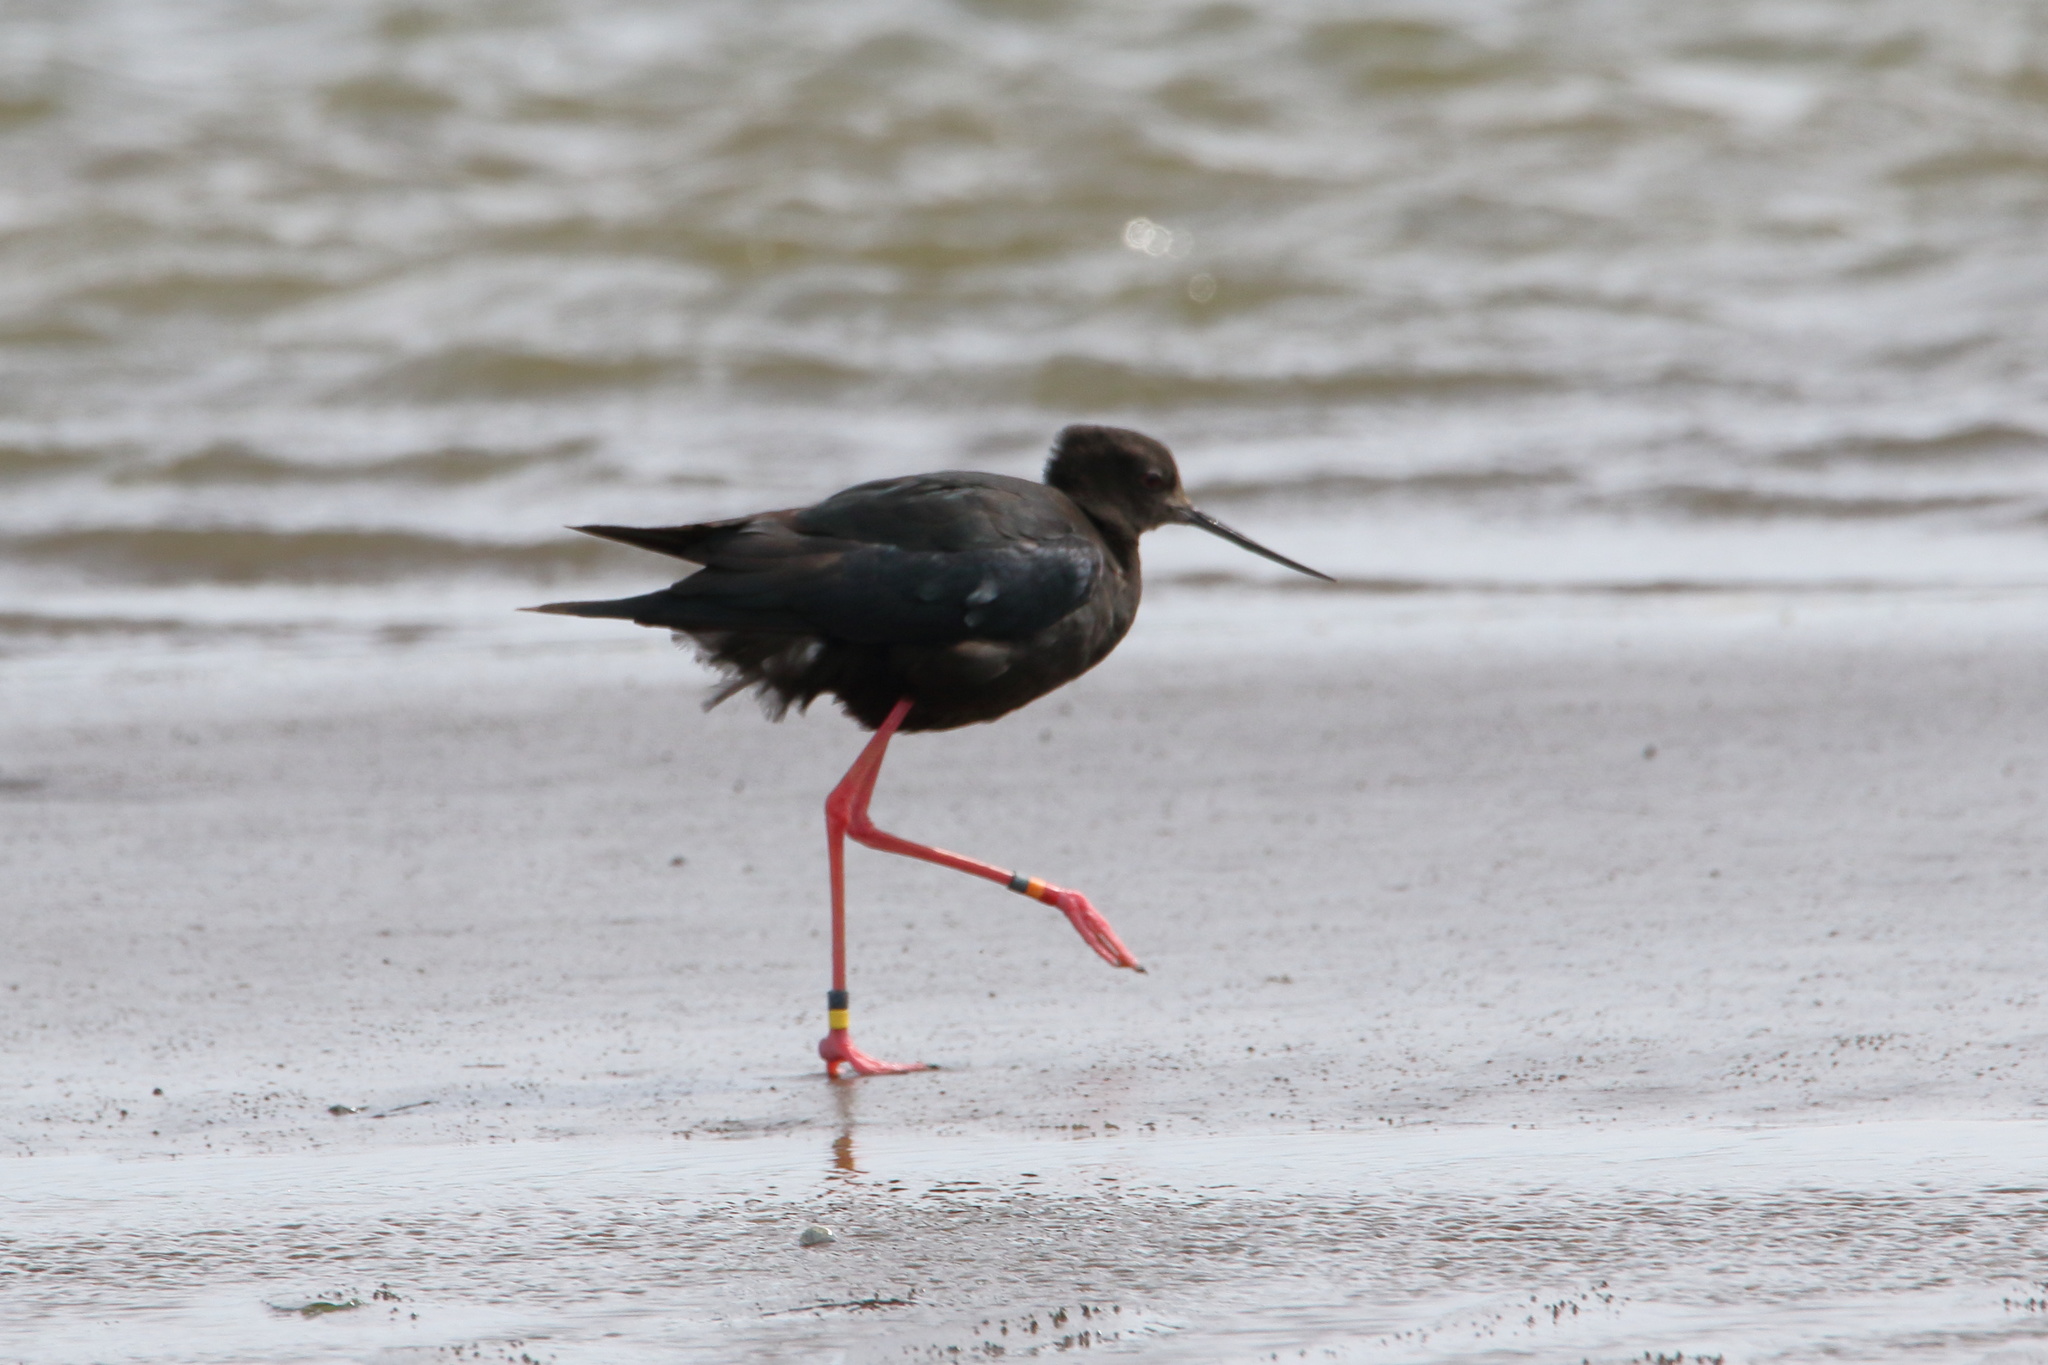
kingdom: Animalia
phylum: Chordata
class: Aves
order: Charadriiformes
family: Recurvirostridae
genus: Himantopus
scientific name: Himantopus novaezelandiae
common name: Black stilt
